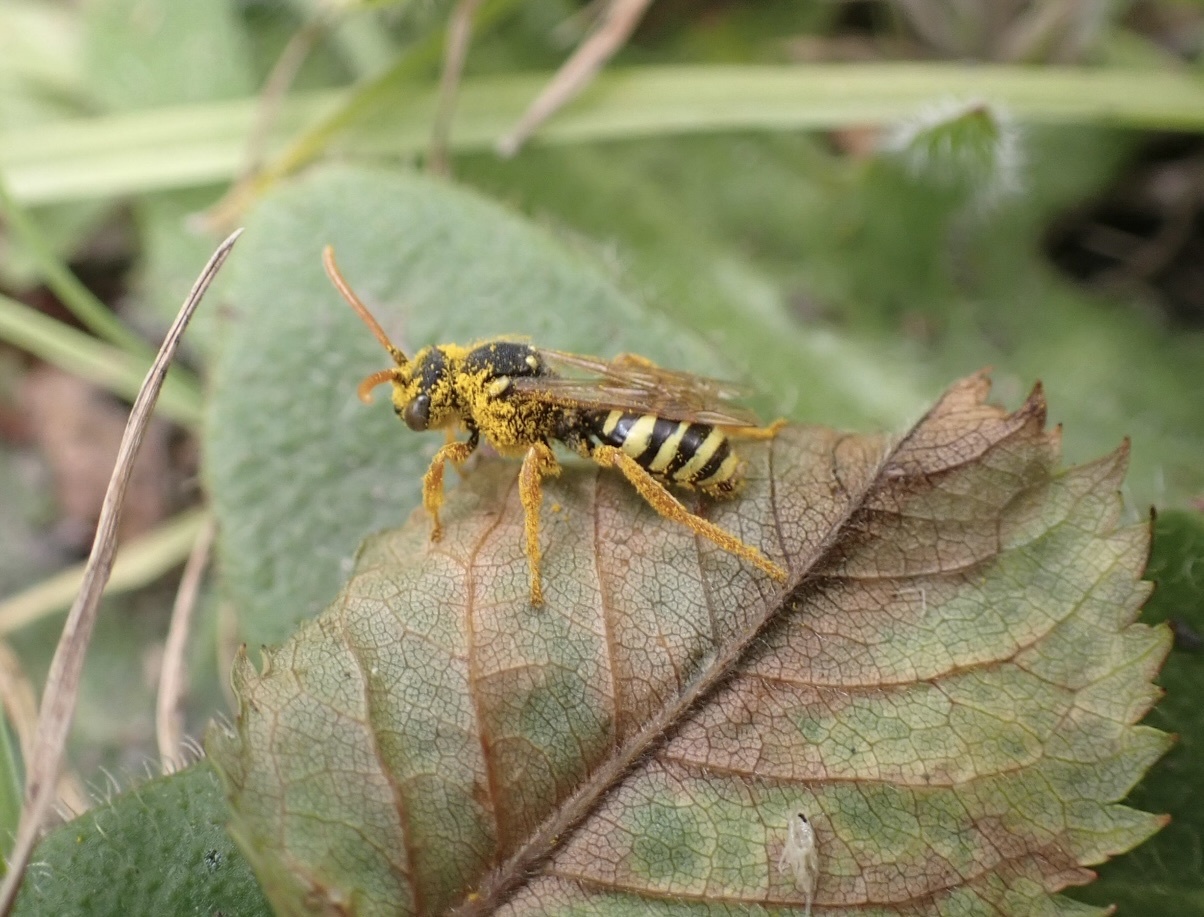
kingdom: Animalia
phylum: Arthropoda
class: Insecta
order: Hymenoptera
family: Apidae
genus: Nomada
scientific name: Nomada goodeniana
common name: Gooden's nomad bee
